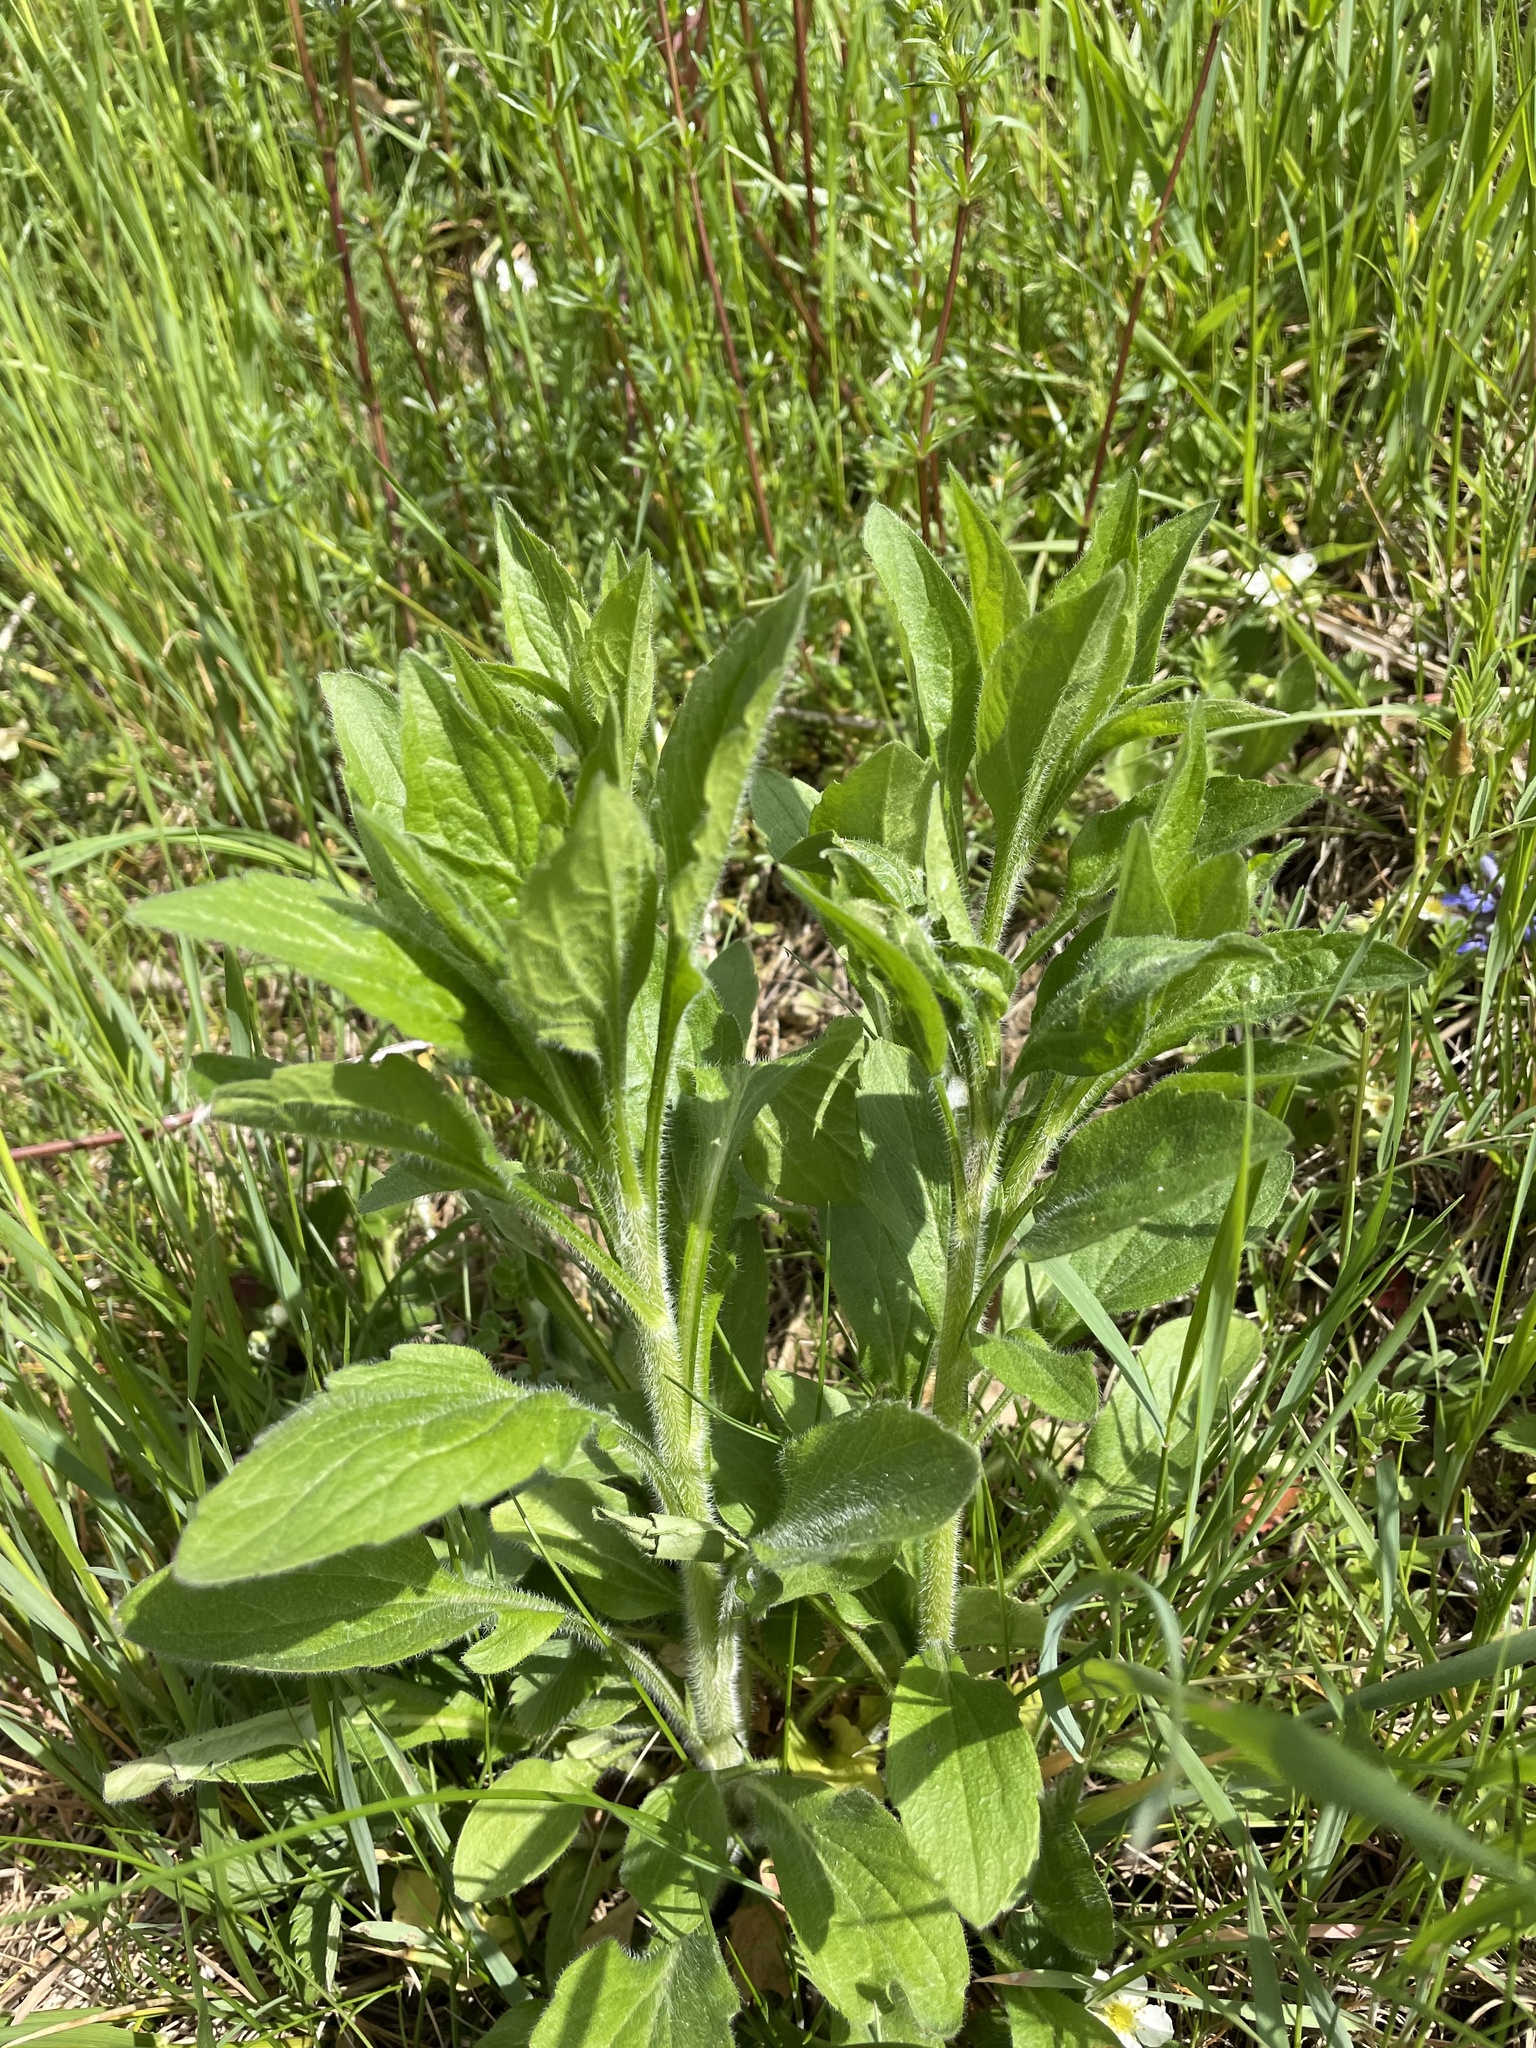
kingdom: Plantae
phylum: Tracheophyta
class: Magnoliopsida
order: Asterales
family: Asteraceae
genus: Erigeron
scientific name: Erigeron annuus
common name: Tall fleabane
